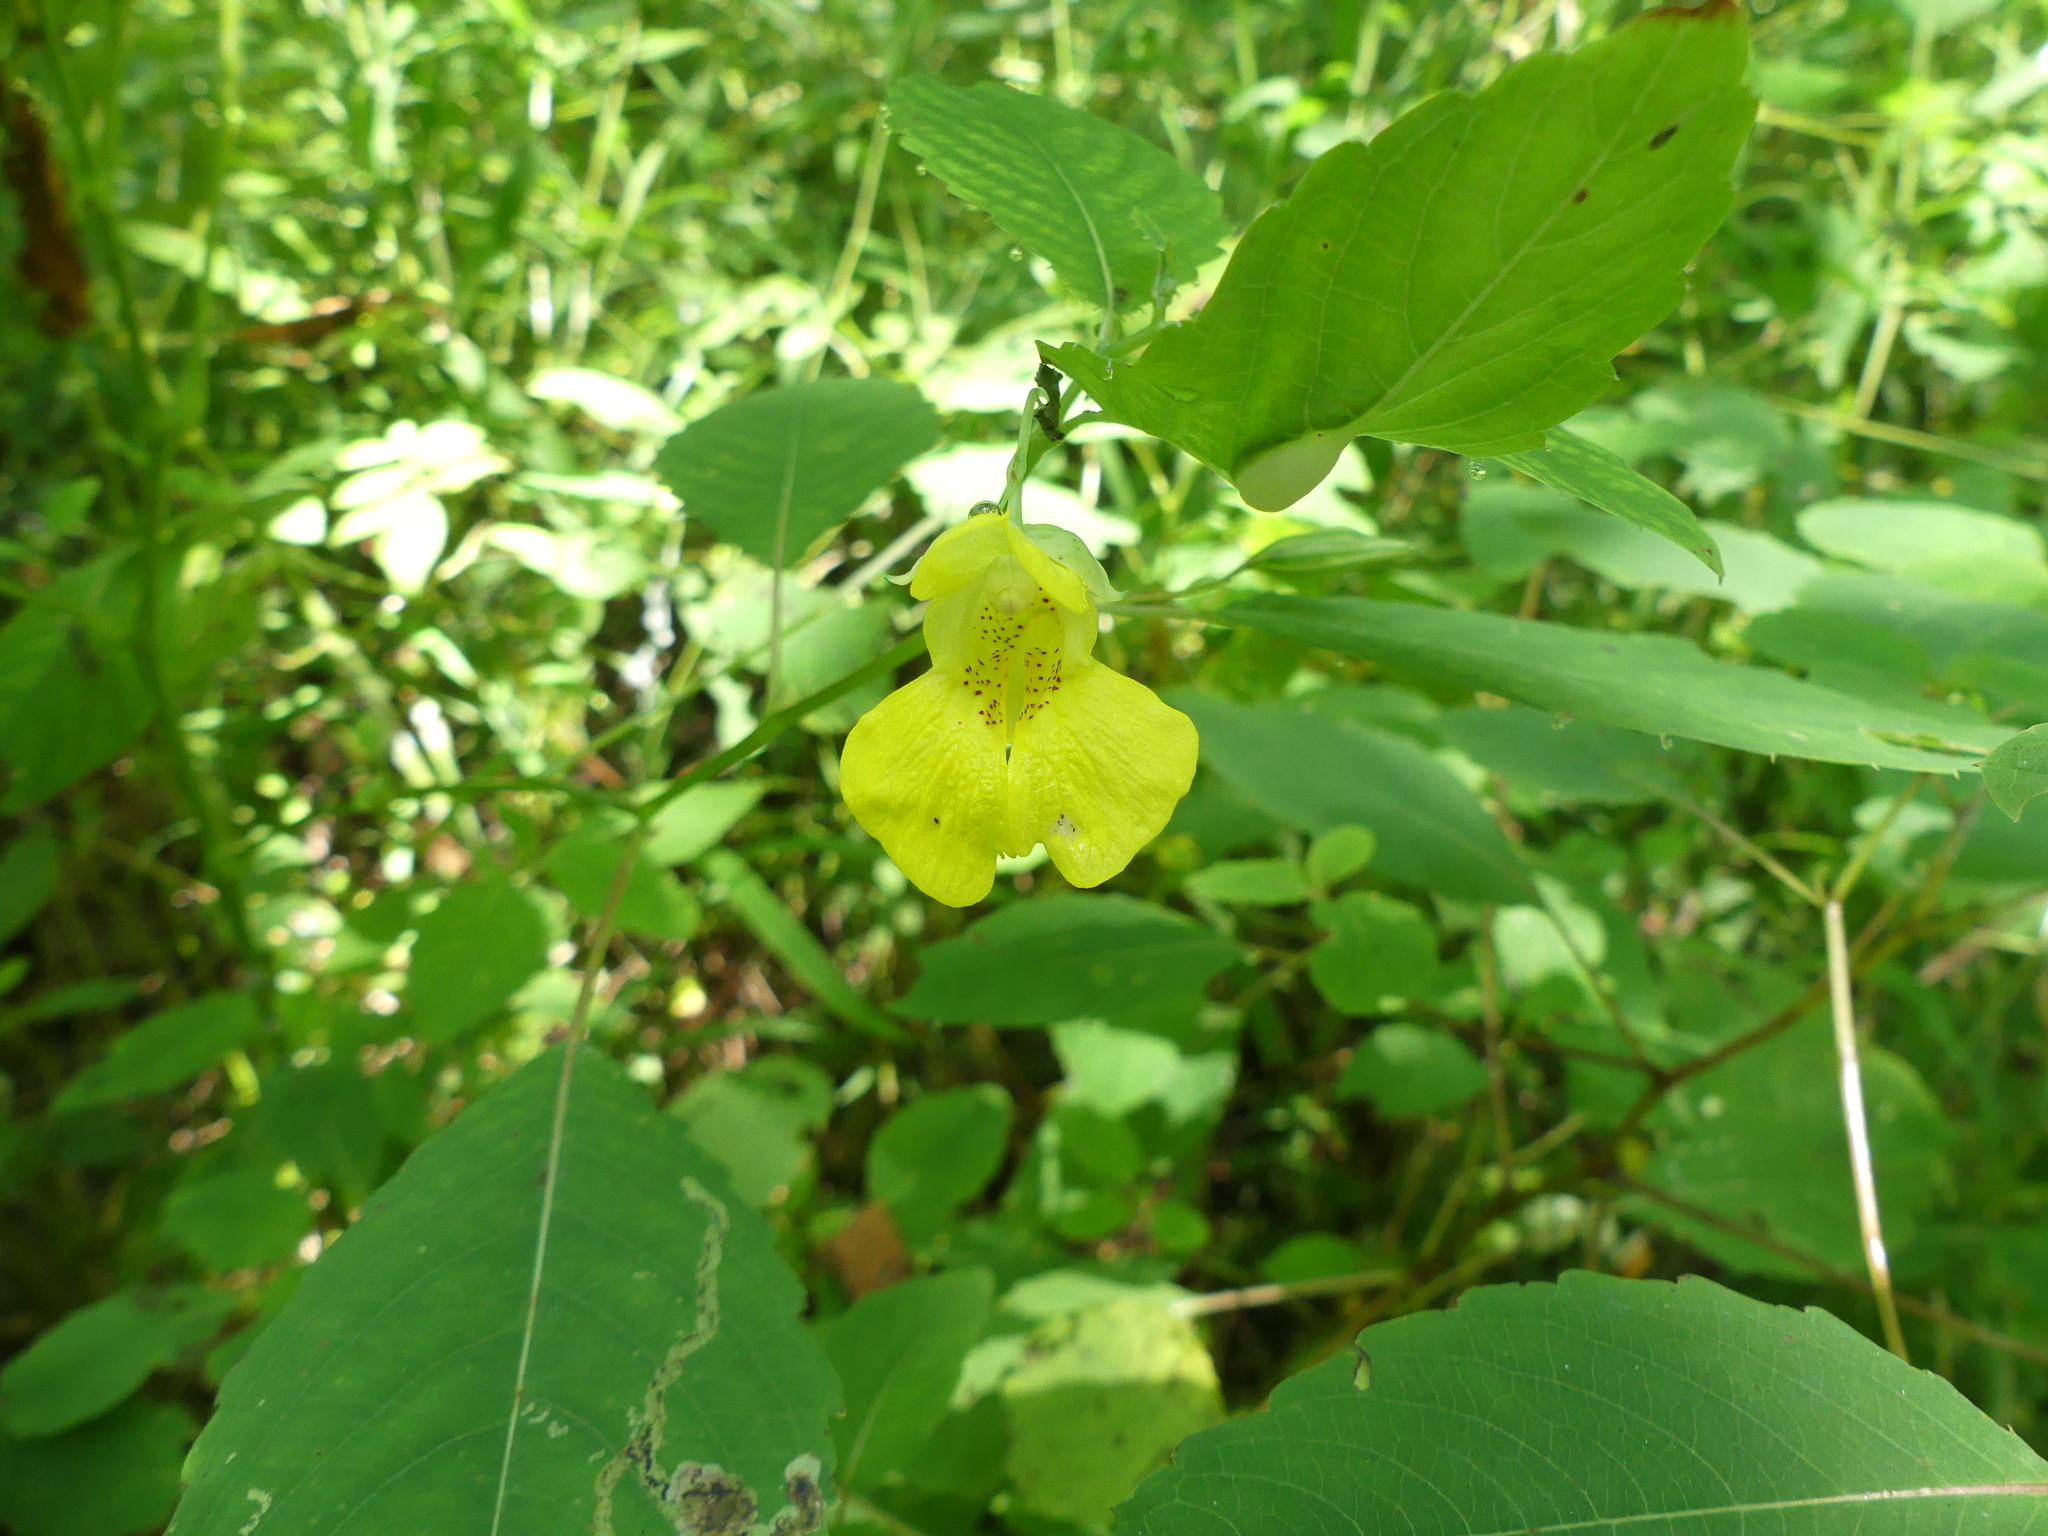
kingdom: Plantae
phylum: Tracheophyta
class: Magnoliopsida
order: Ericales
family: Balsaminaceae
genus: Impatiens
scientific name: Impatiens pallida
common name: Pale snapweed
